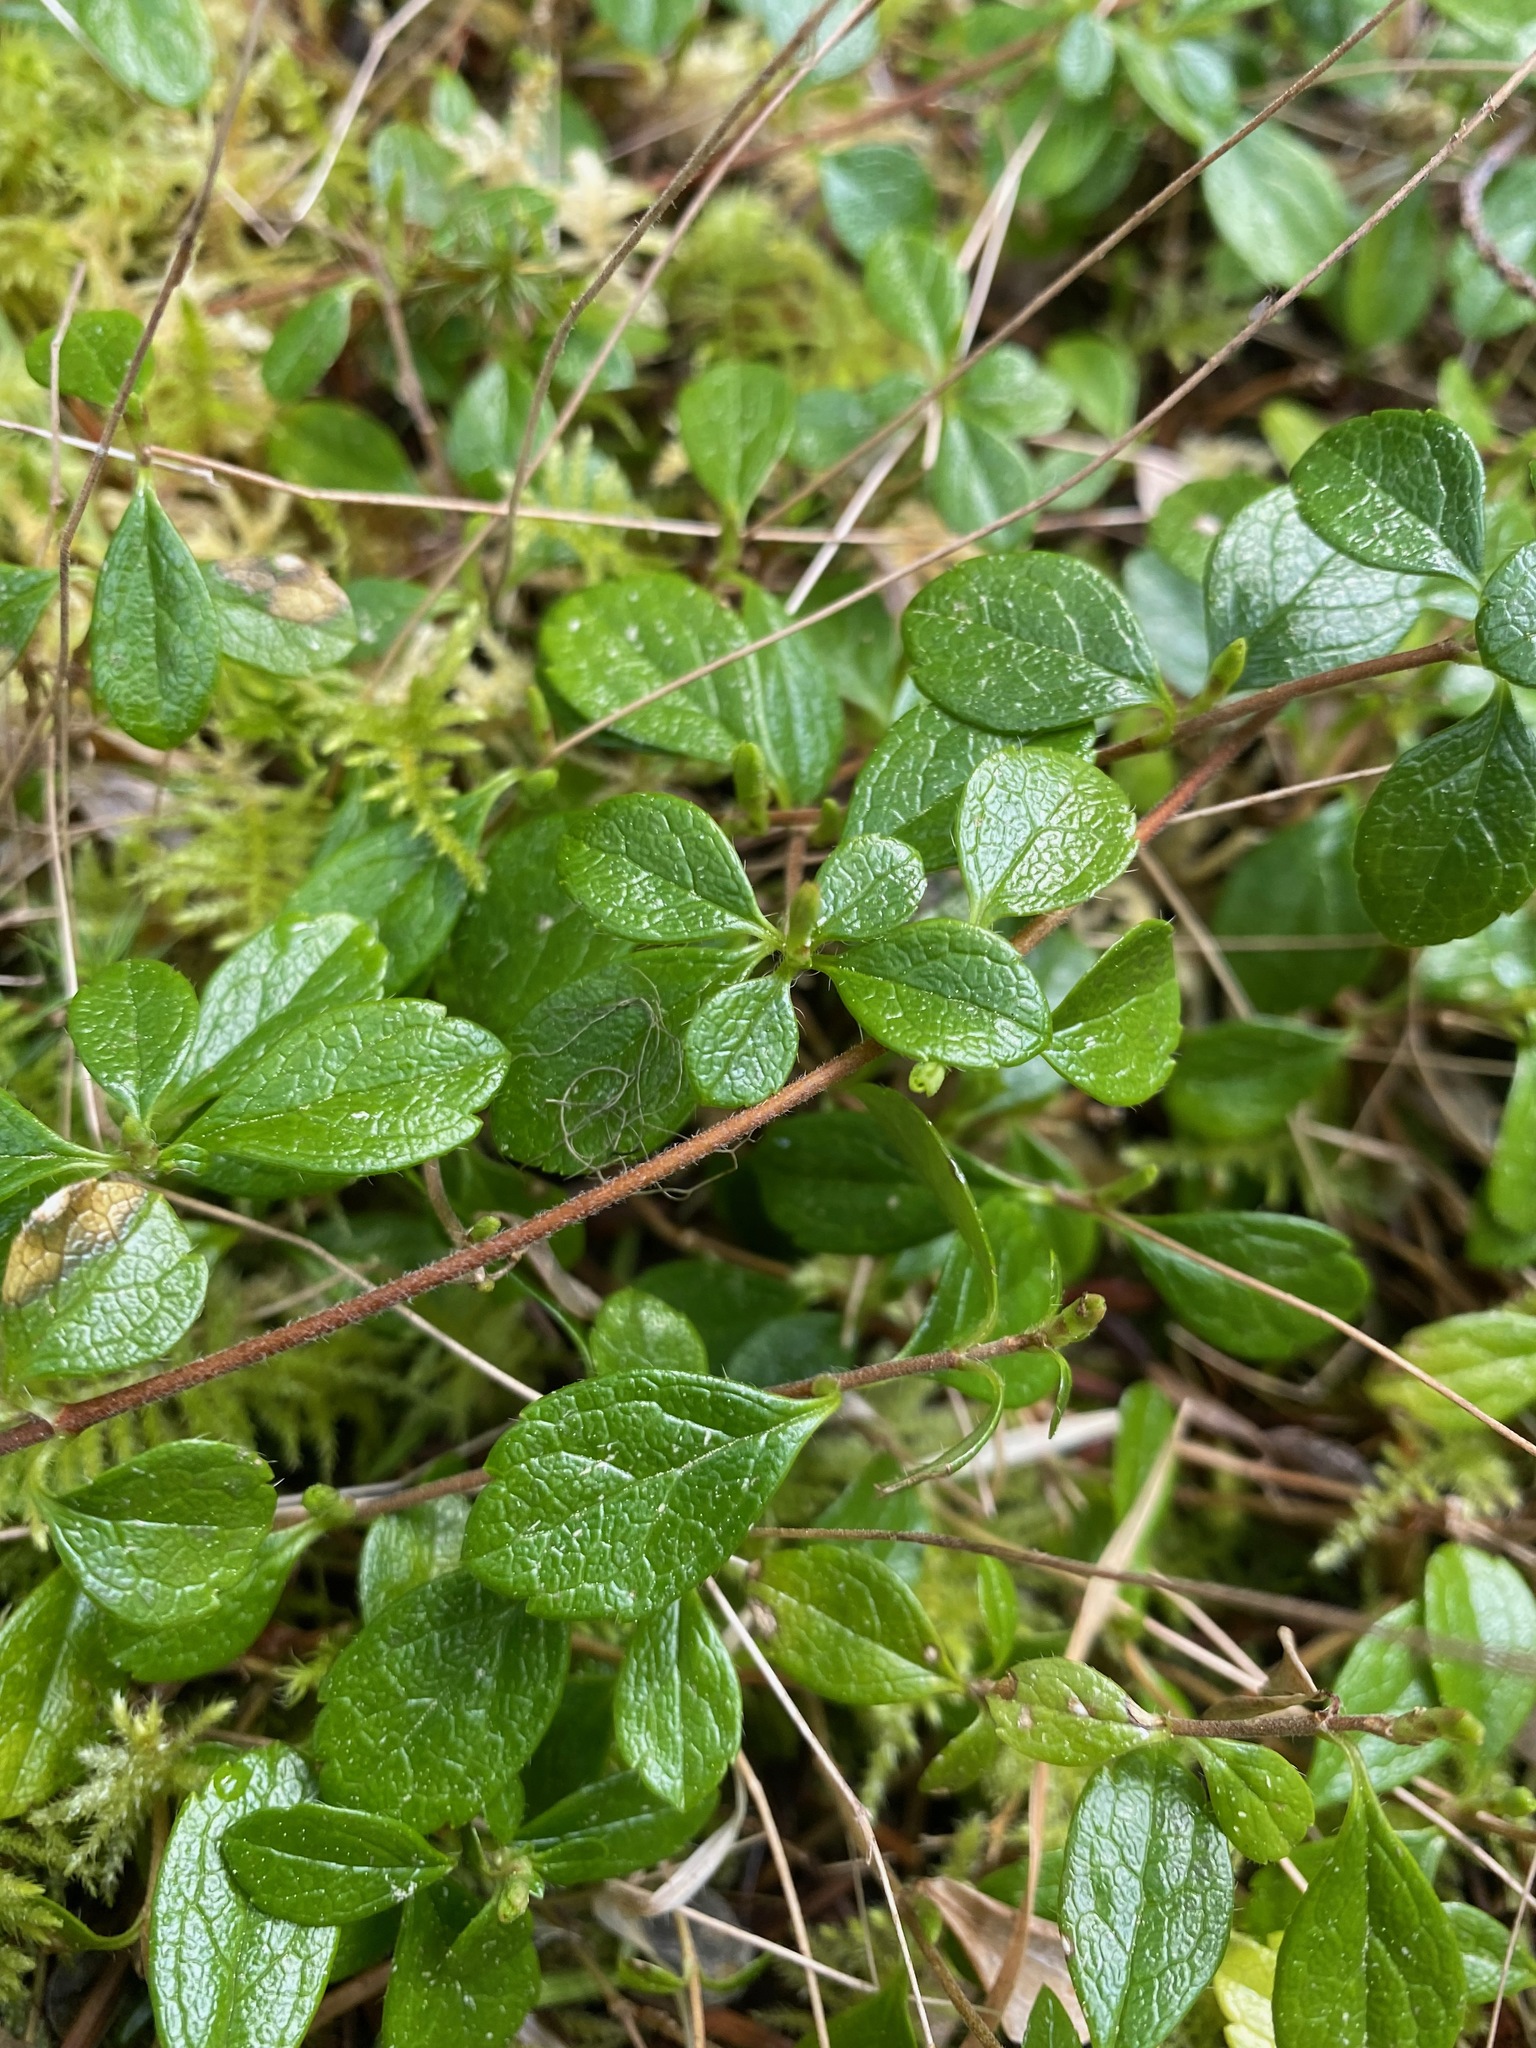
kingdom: Plantae
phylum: Tracheophyta
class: Magnoliopsida
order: Dipsacales
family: Caprifoliaceae
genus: Linnaea
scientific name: Linnaea borealis
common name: Twinflower
